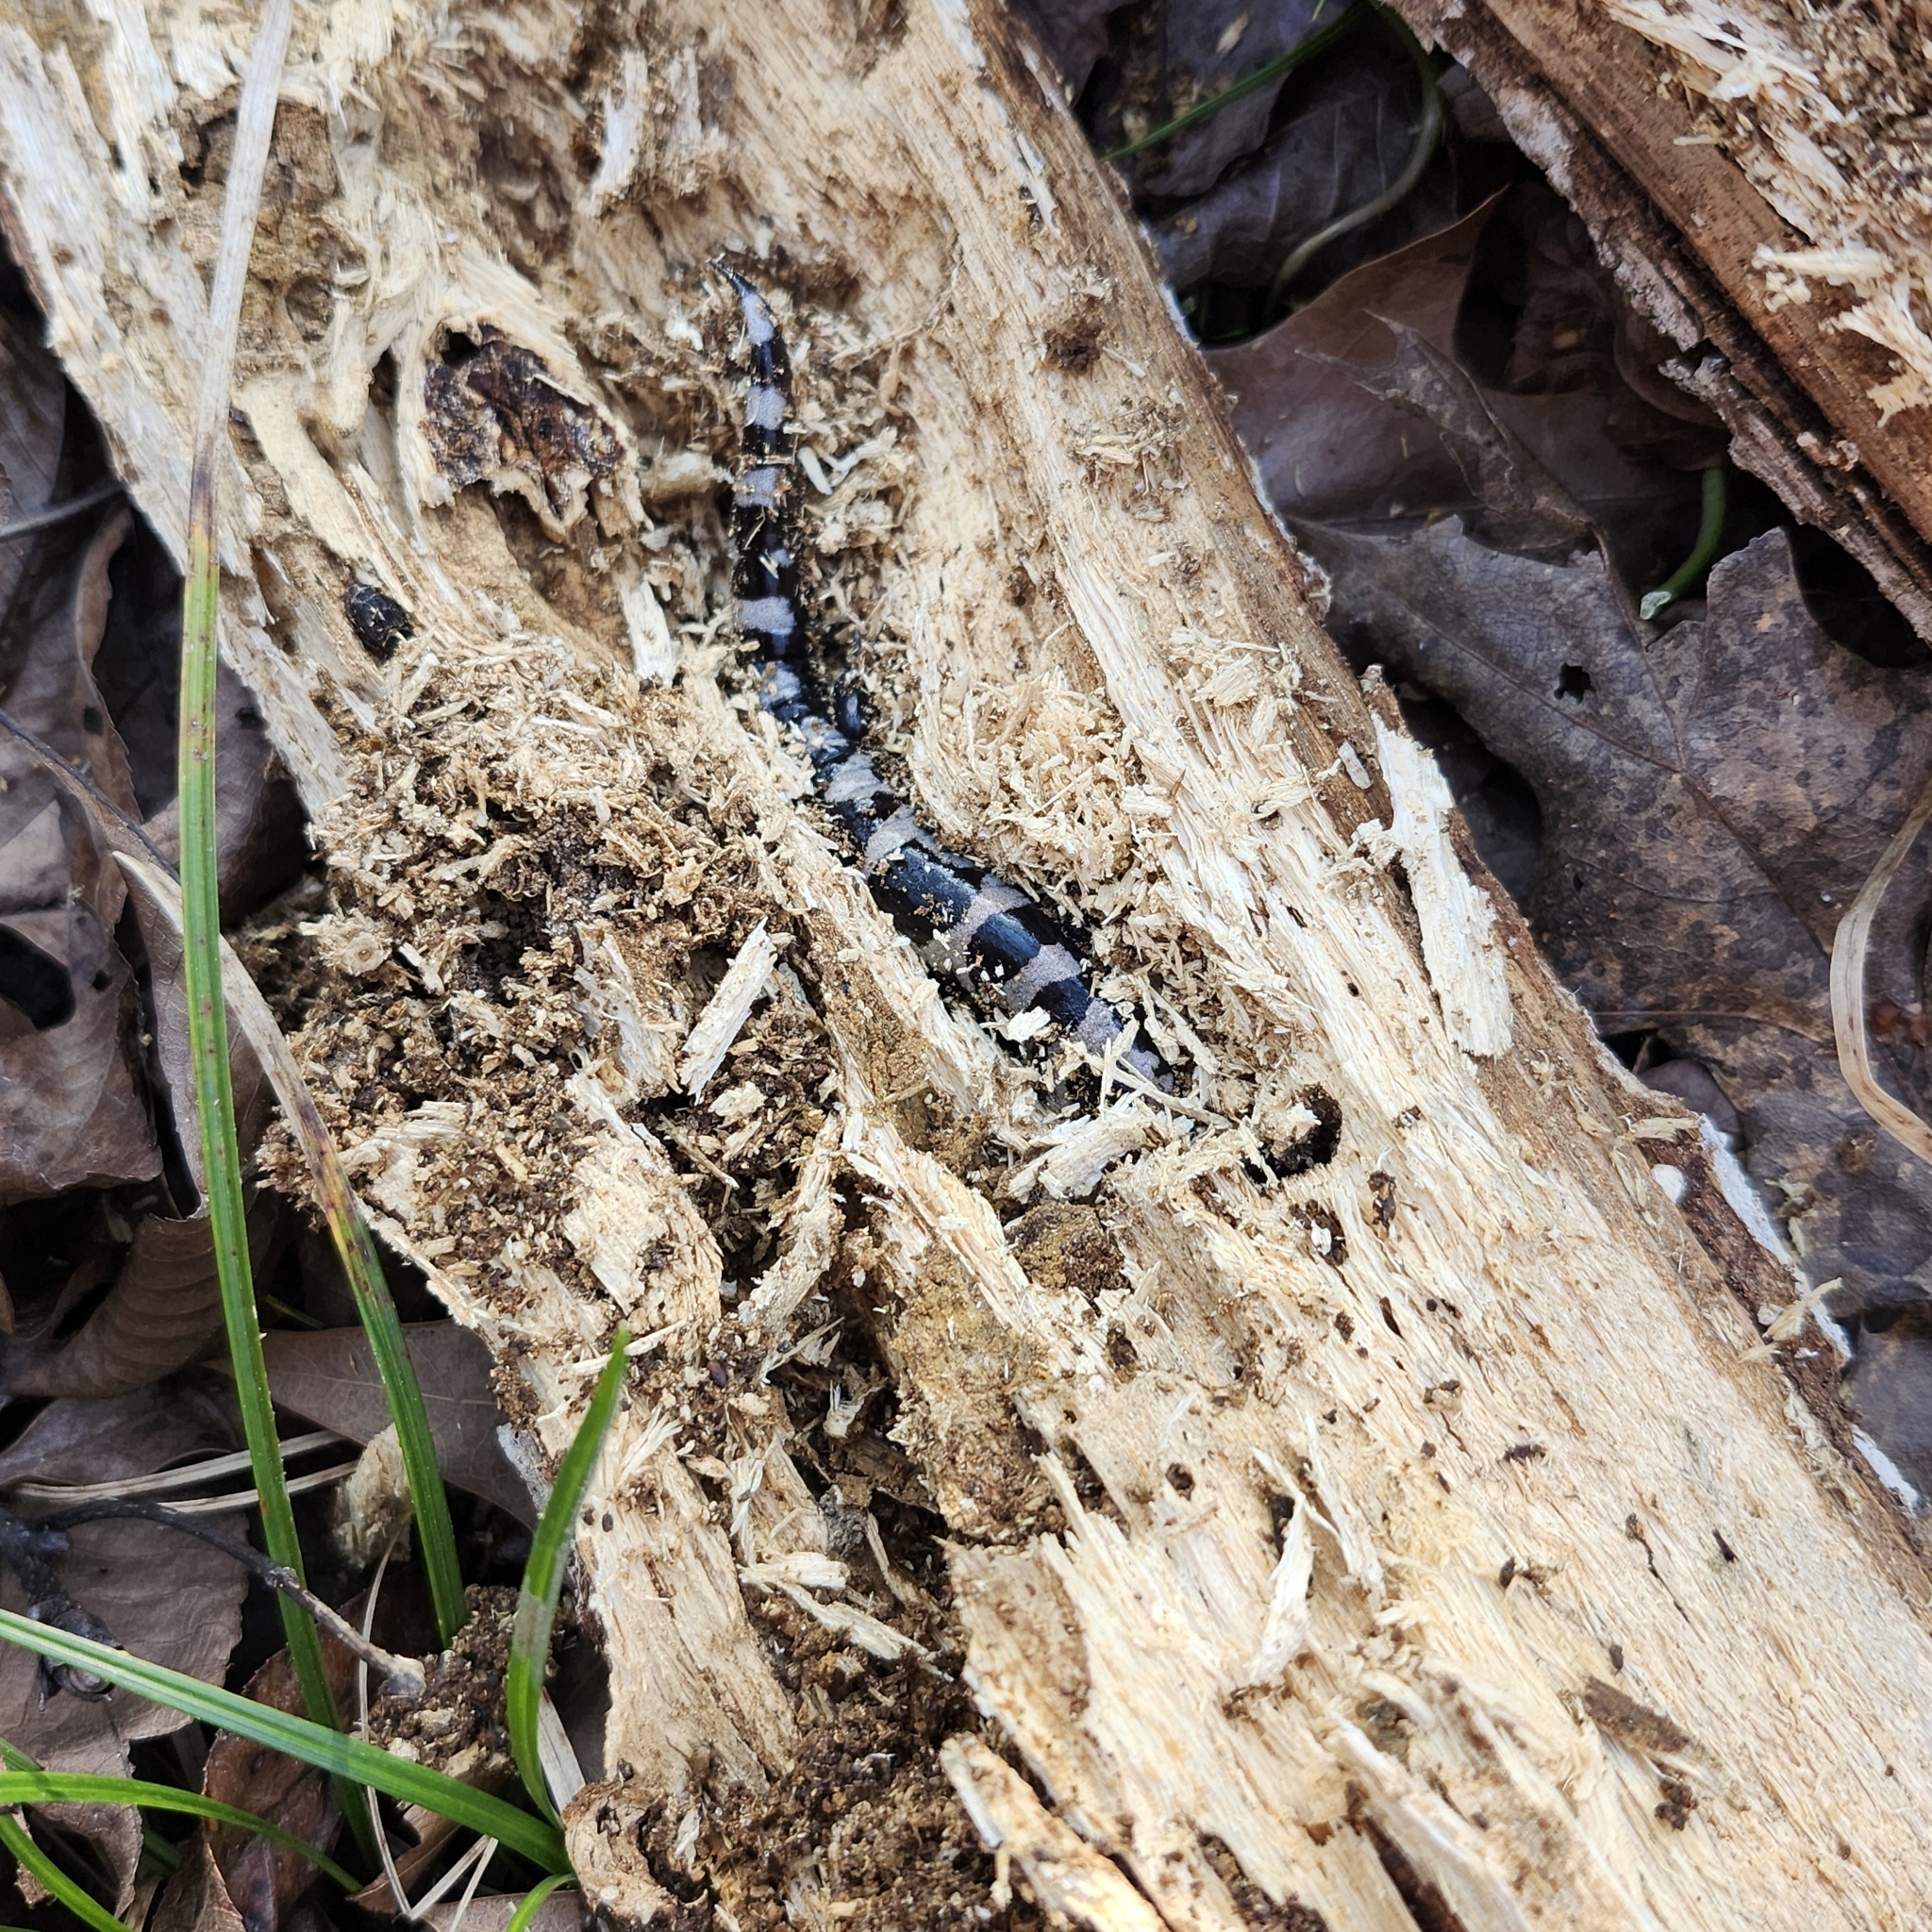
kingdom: Animalia
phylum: Chordata
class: Amphibia
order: Caudata
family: Ambystomatidae
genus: Ambystoma
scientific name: Ambystoma opacum
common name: Marbled salamander
